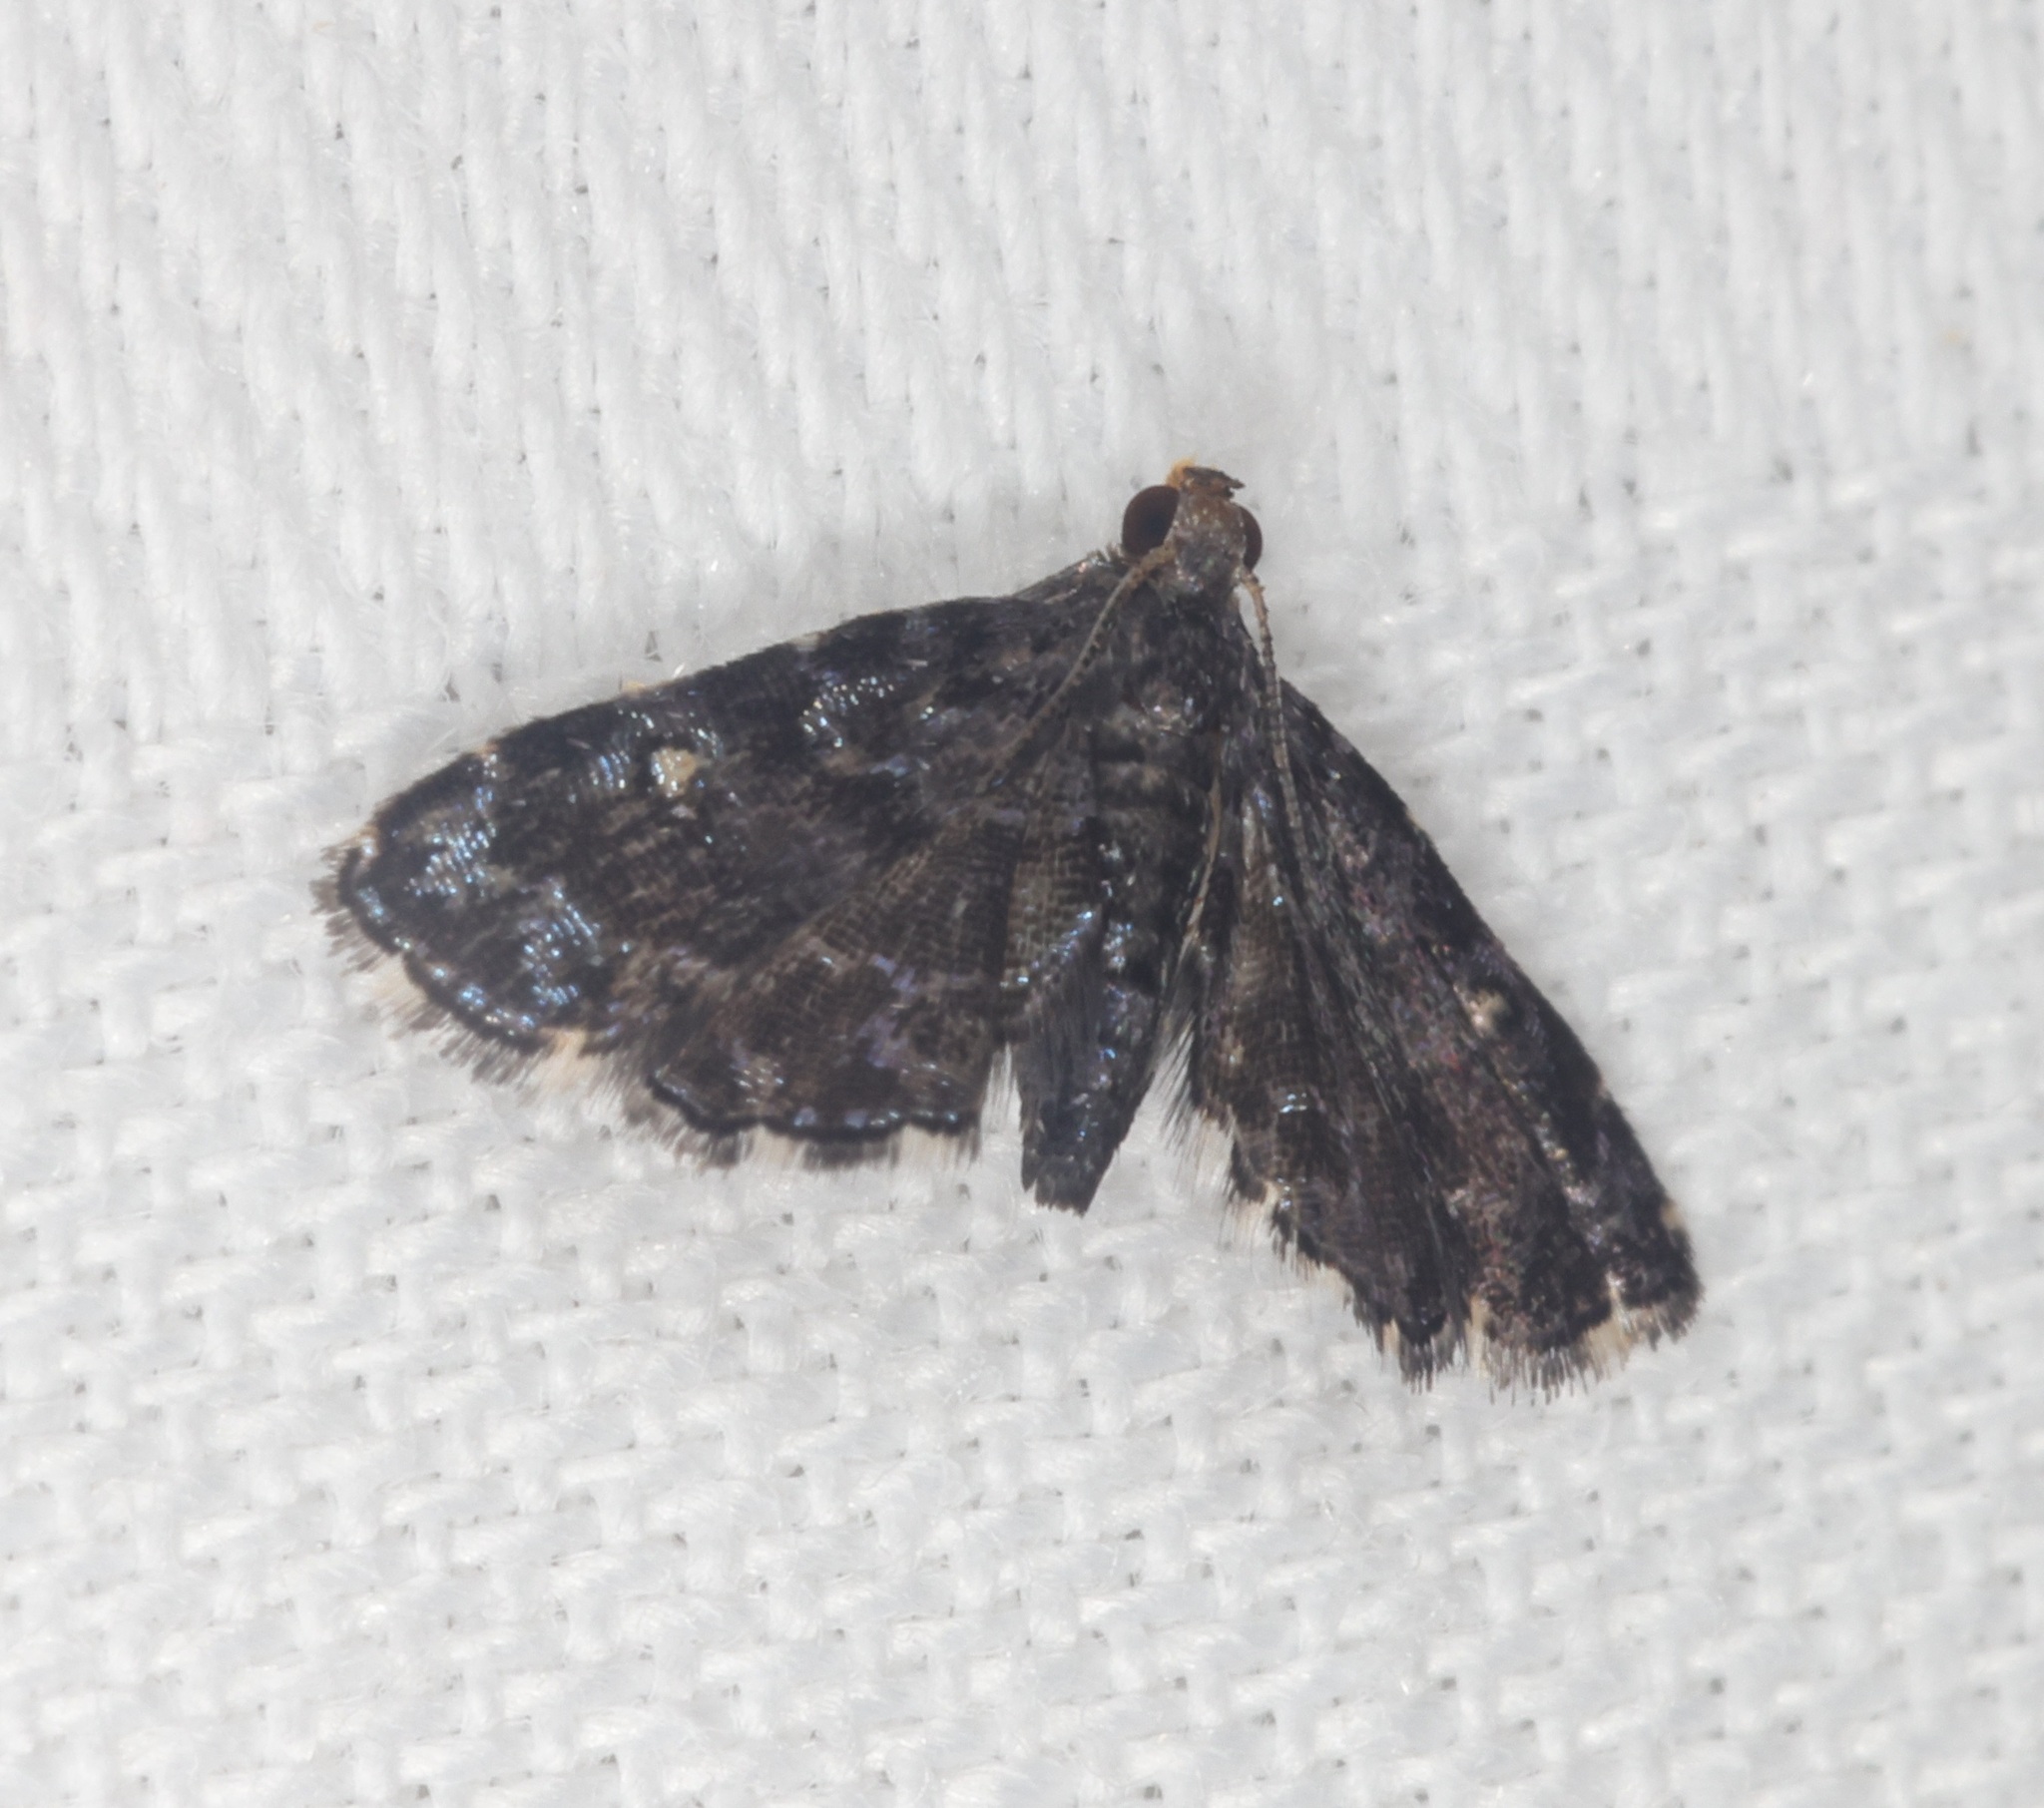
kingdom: Animalia
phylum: Arthropoda
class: Insecta
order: Lepidoptera
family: Pyralidae
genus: Drosophantis
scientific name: Drosophantis caeruleata
